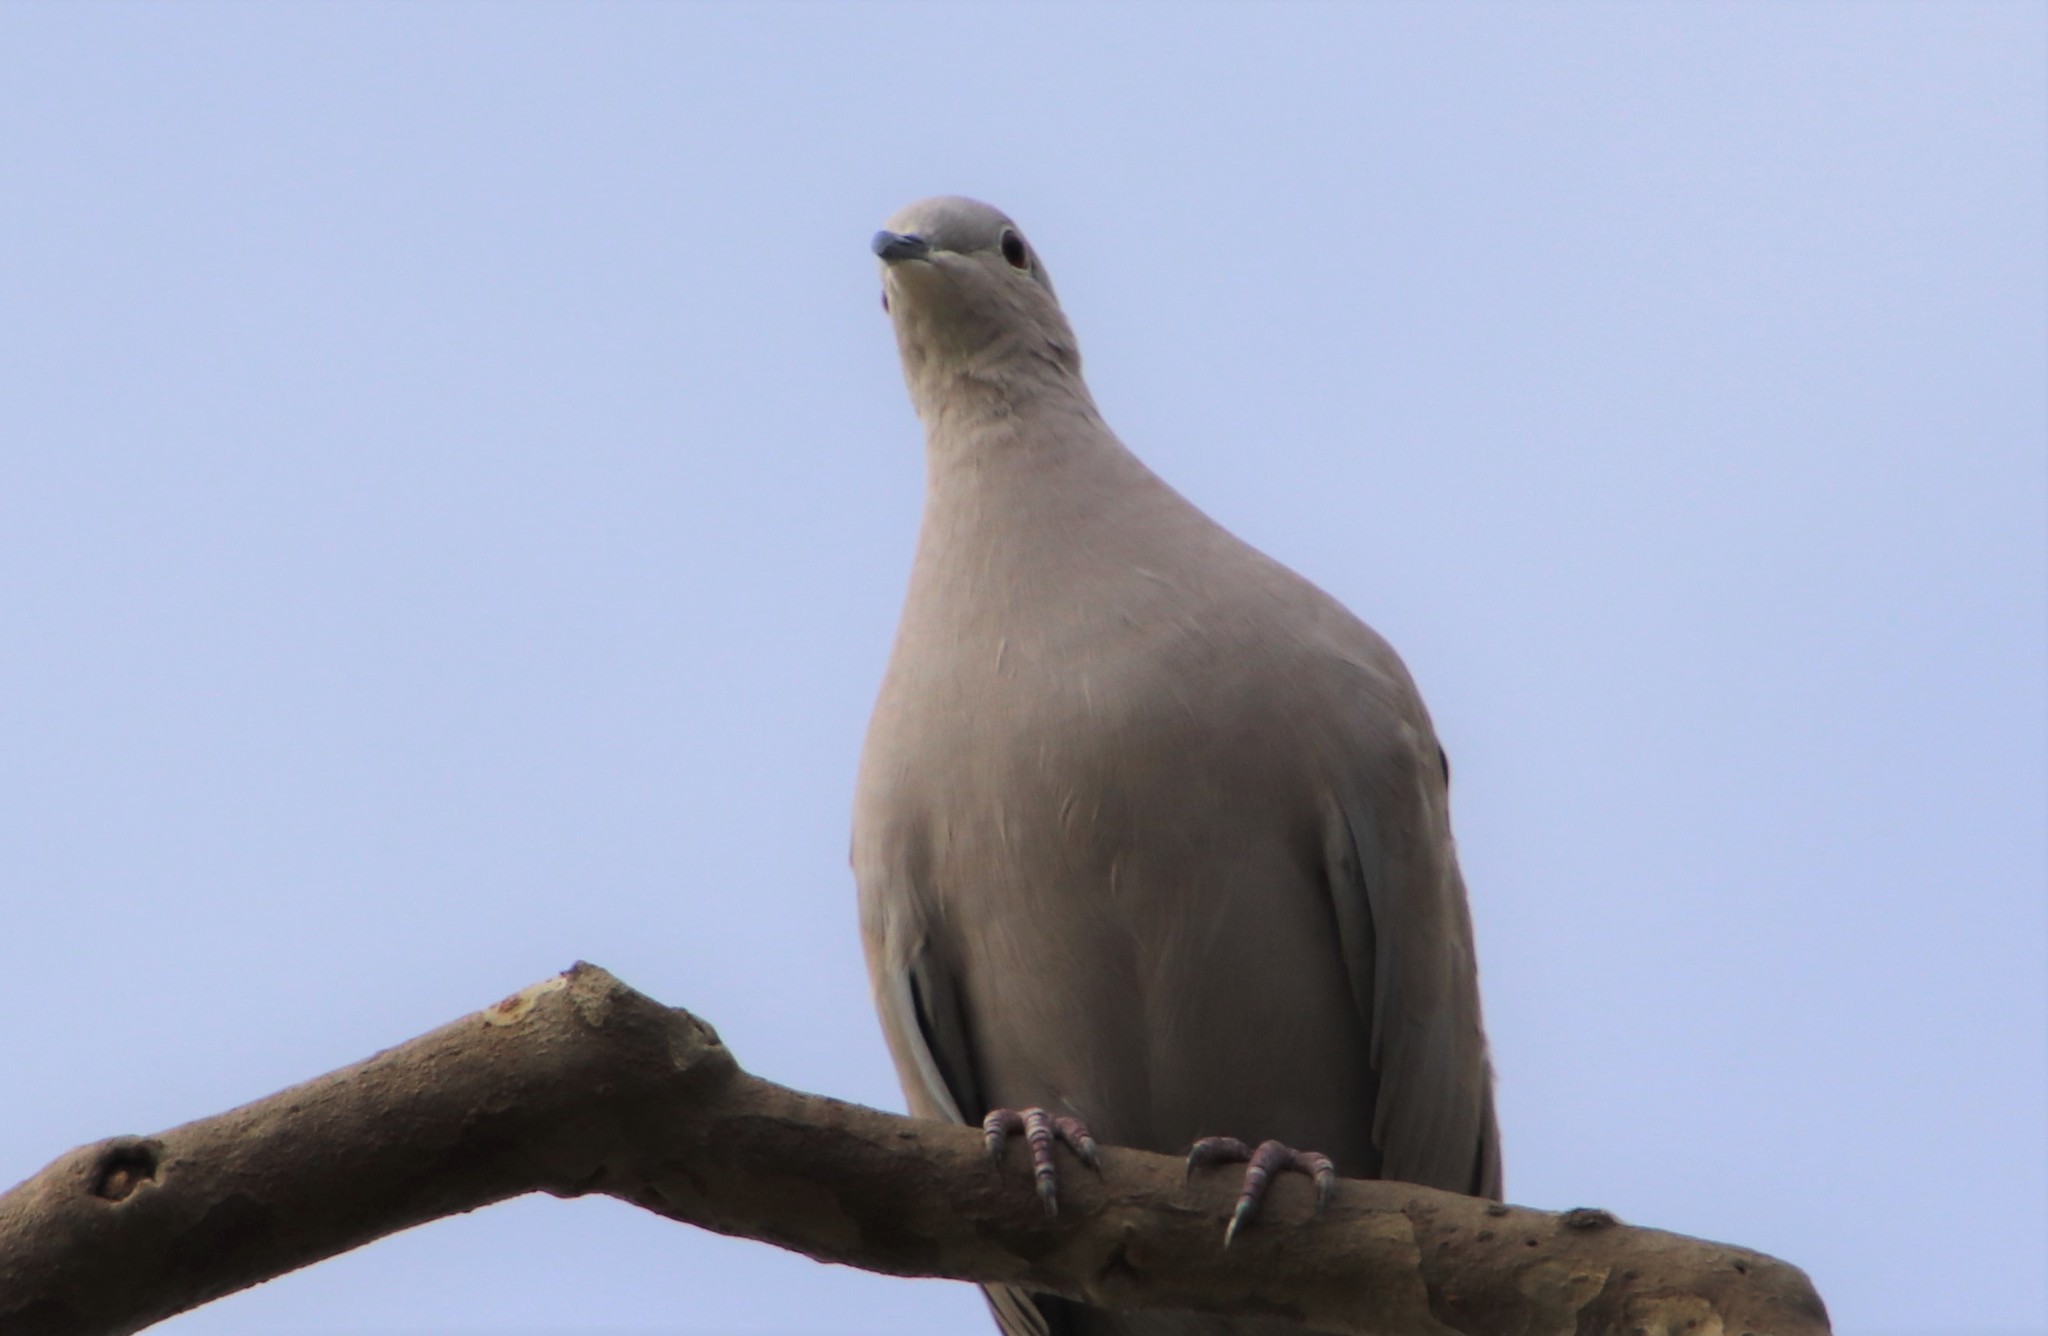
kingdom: Animalia
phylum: Chordata
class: Aves
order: Columbiformes
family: Columbidae
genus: Streptopelia
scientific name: Streptopelia decaocto
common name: Eurasian collared dove
